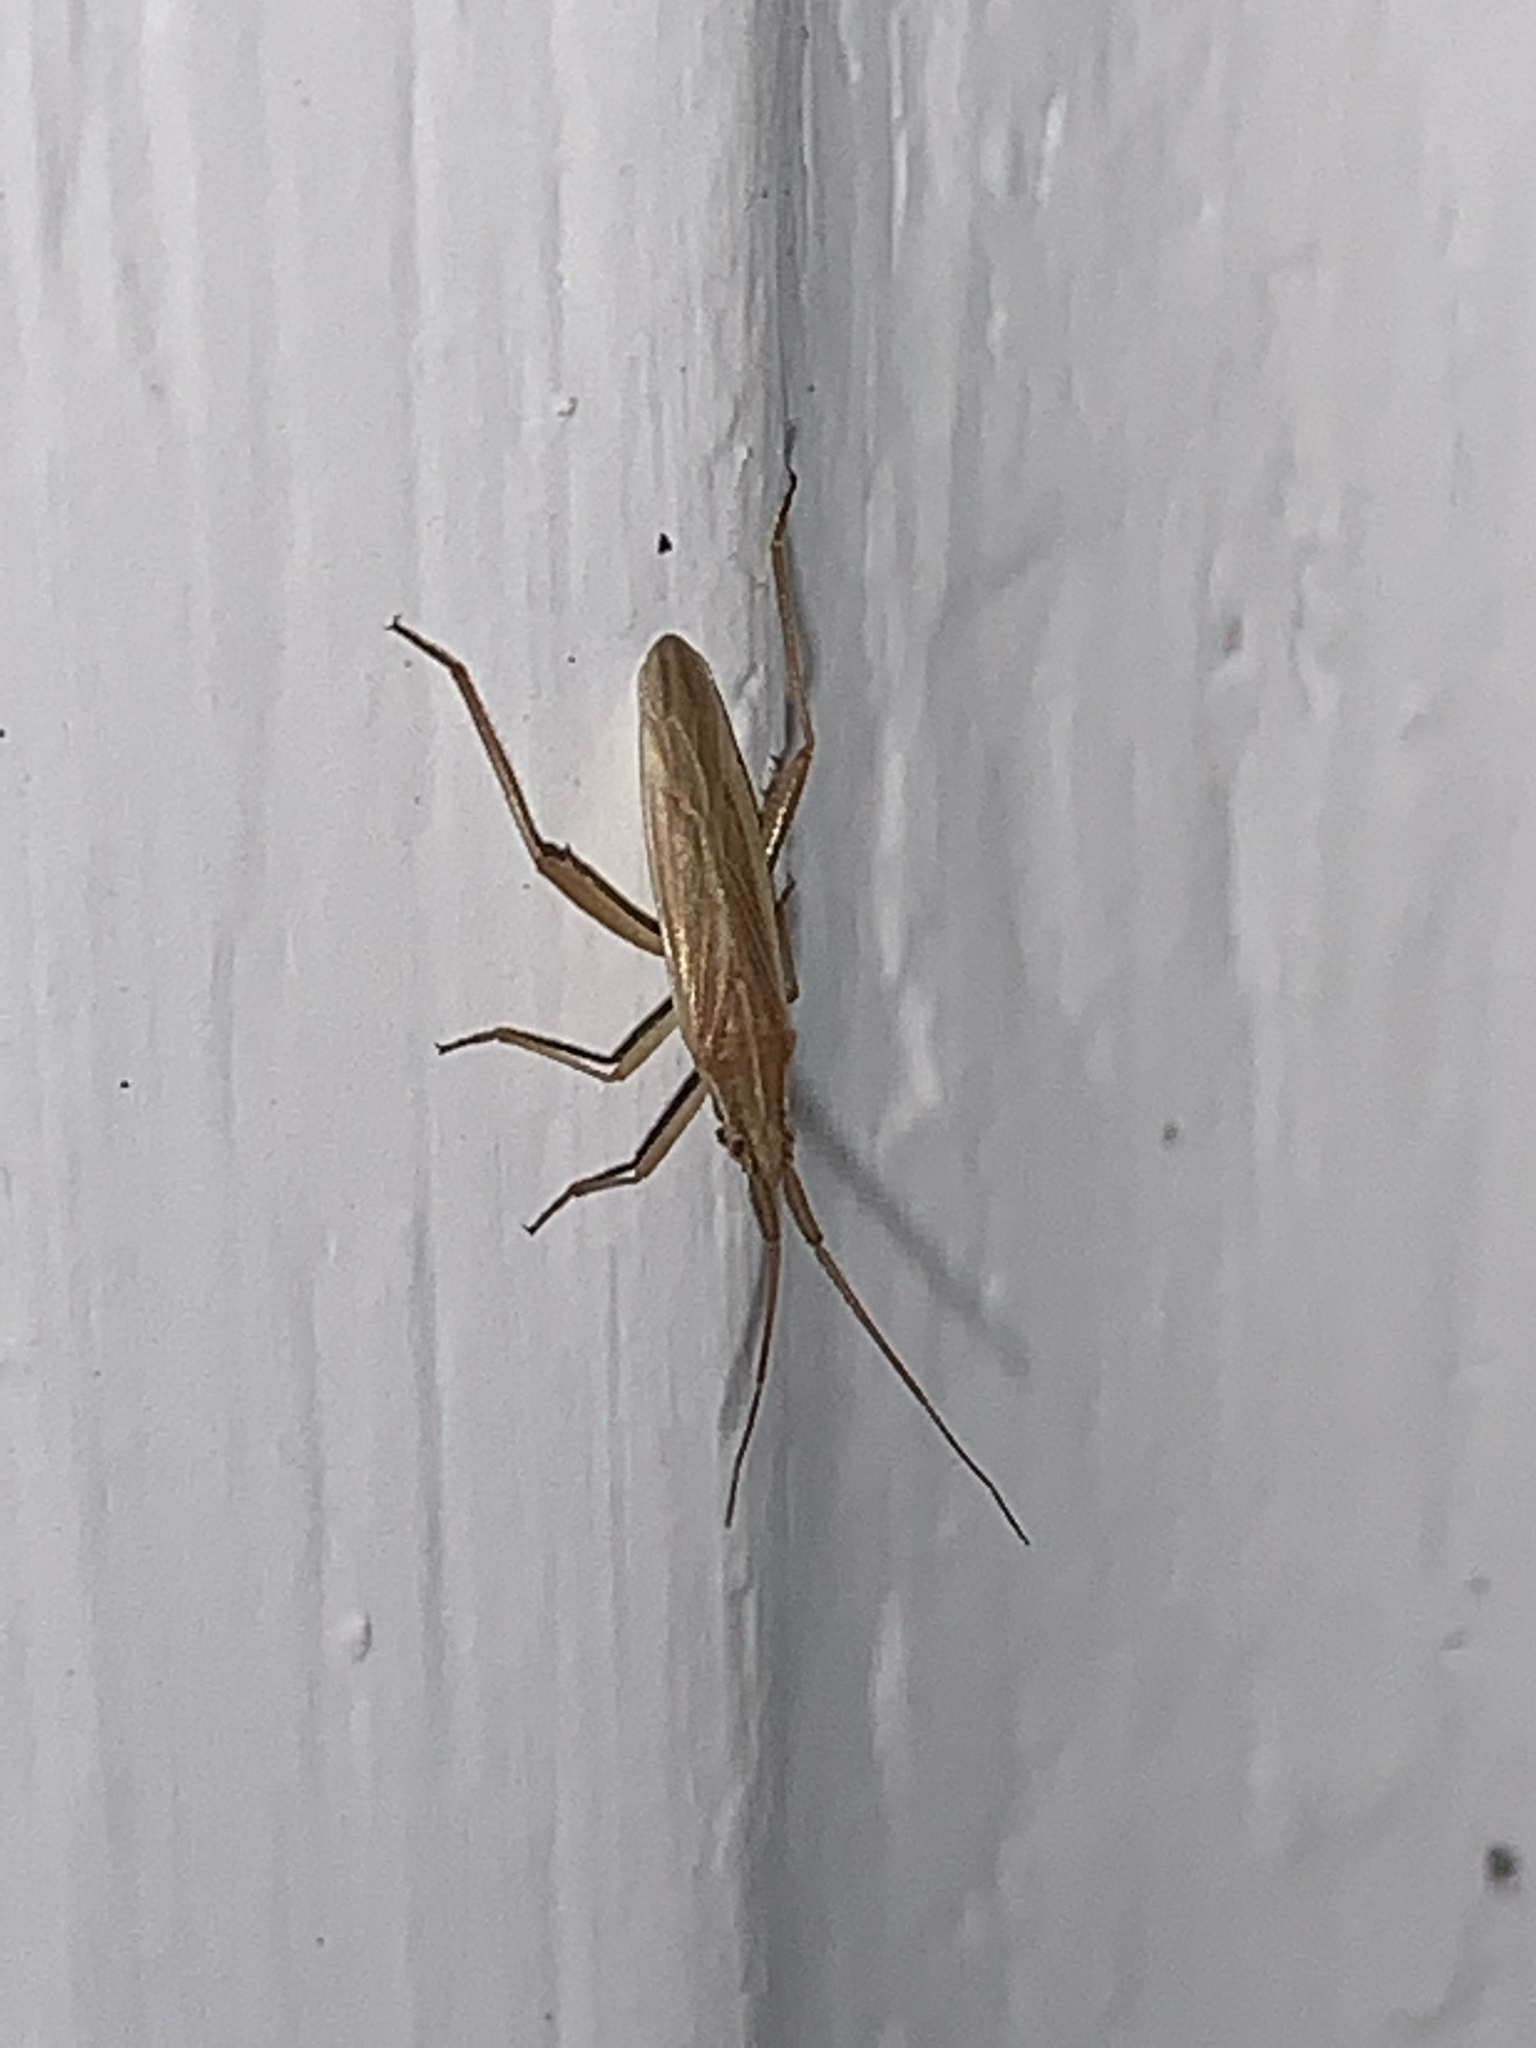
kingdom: Animalia
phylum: Arthropoda
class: Insecta
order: Hemiptera
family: Miridae
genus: Stenodema
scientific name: Stenodema trispinosa
